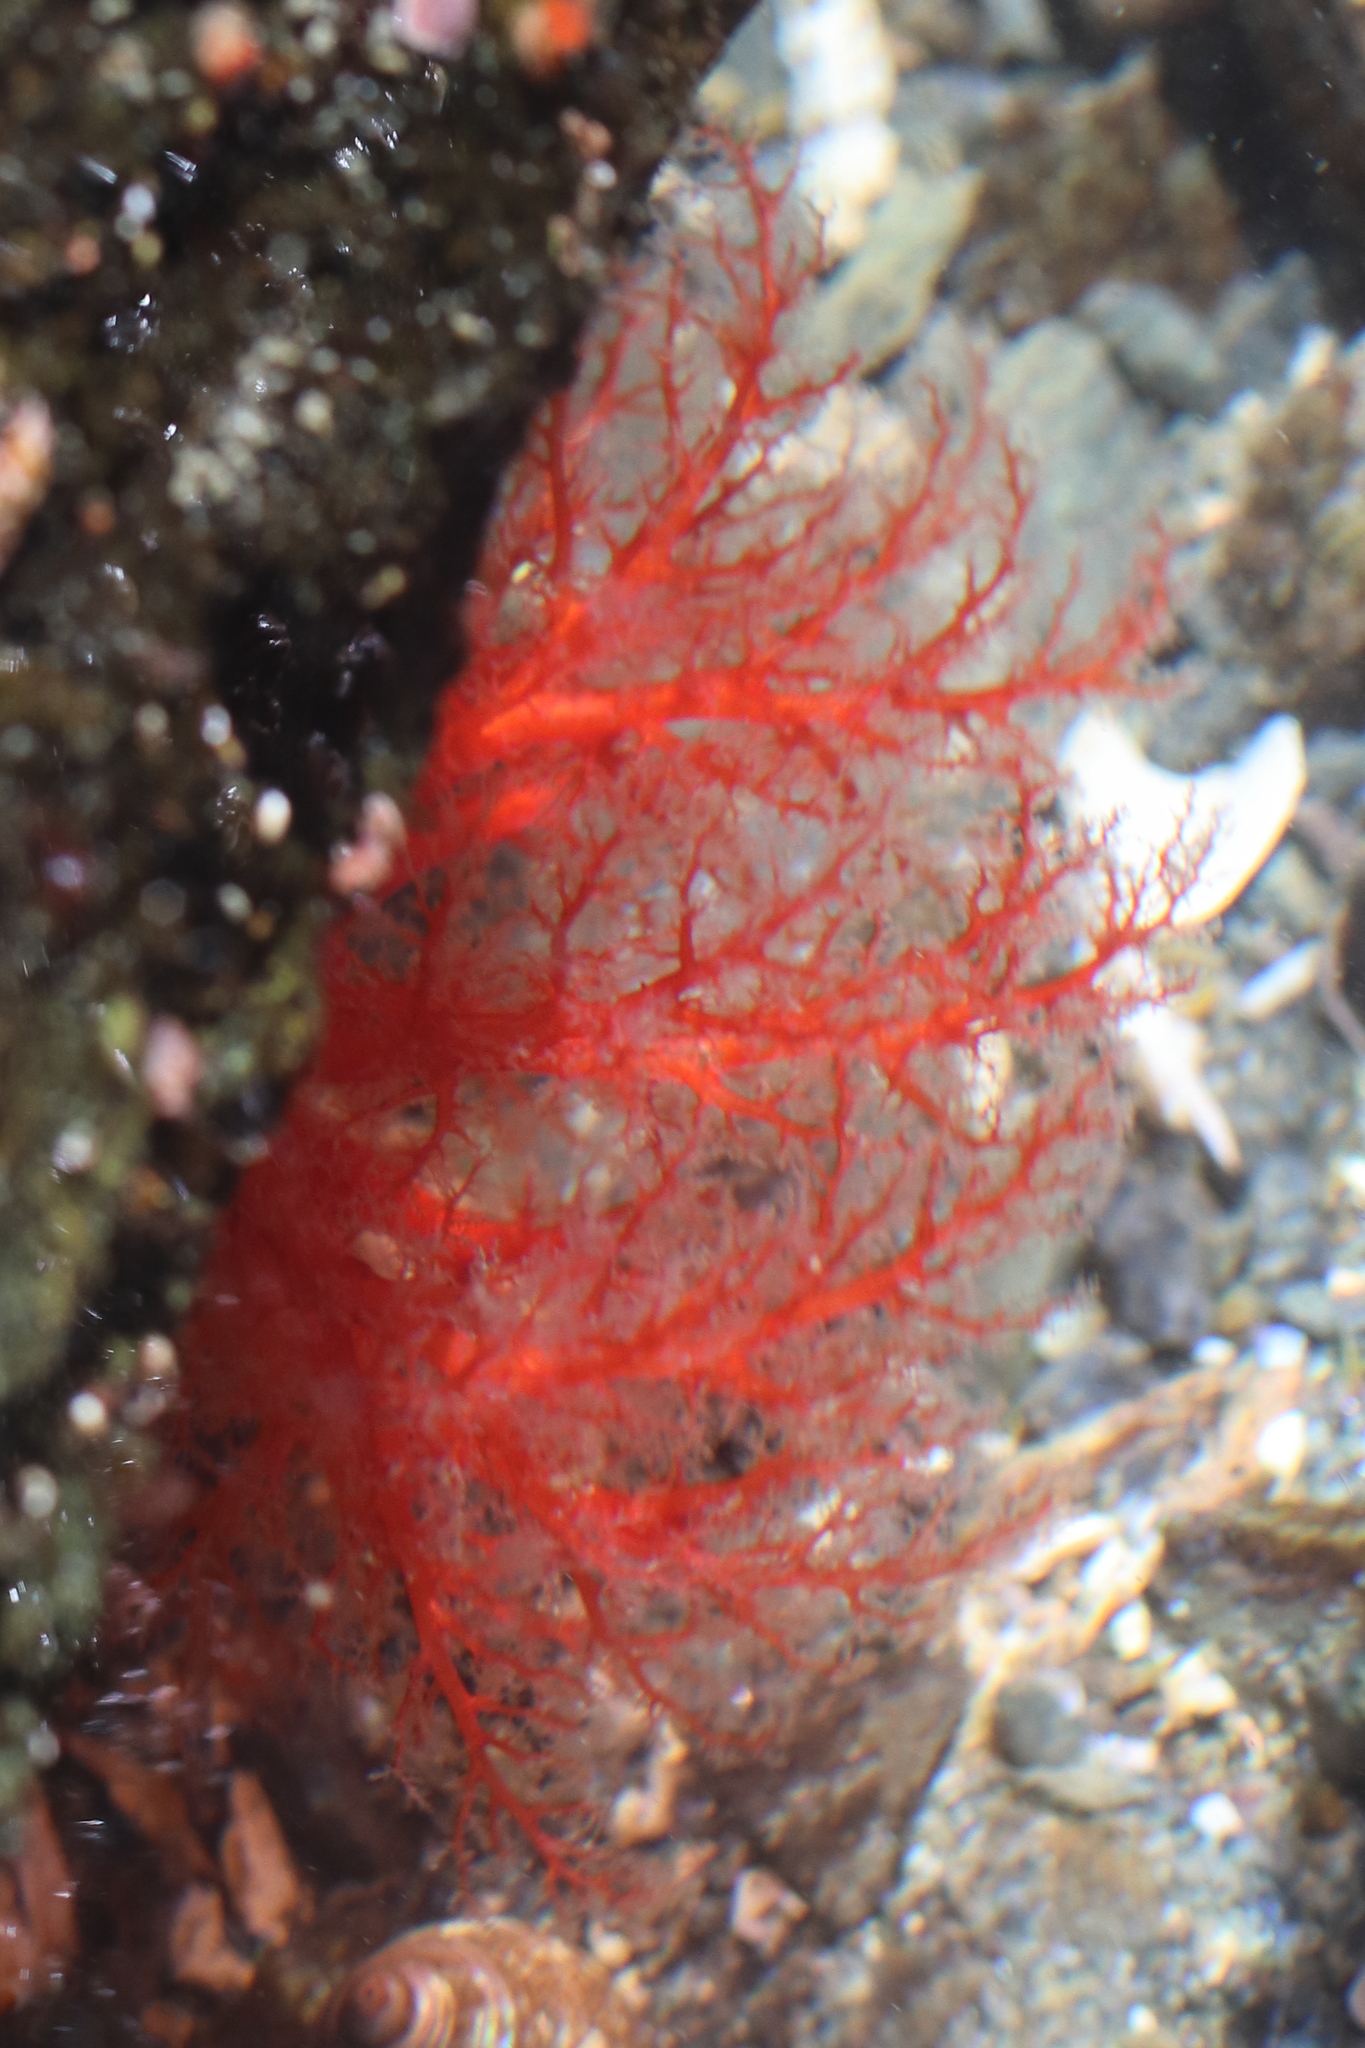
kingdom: Animalia
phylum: Echinodermata
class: Holothuroidea
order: Dendrochirotida
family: Psolidae
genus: Psolus
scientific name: Psolus chitonoides
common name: Creeping pedal sea cucumber
